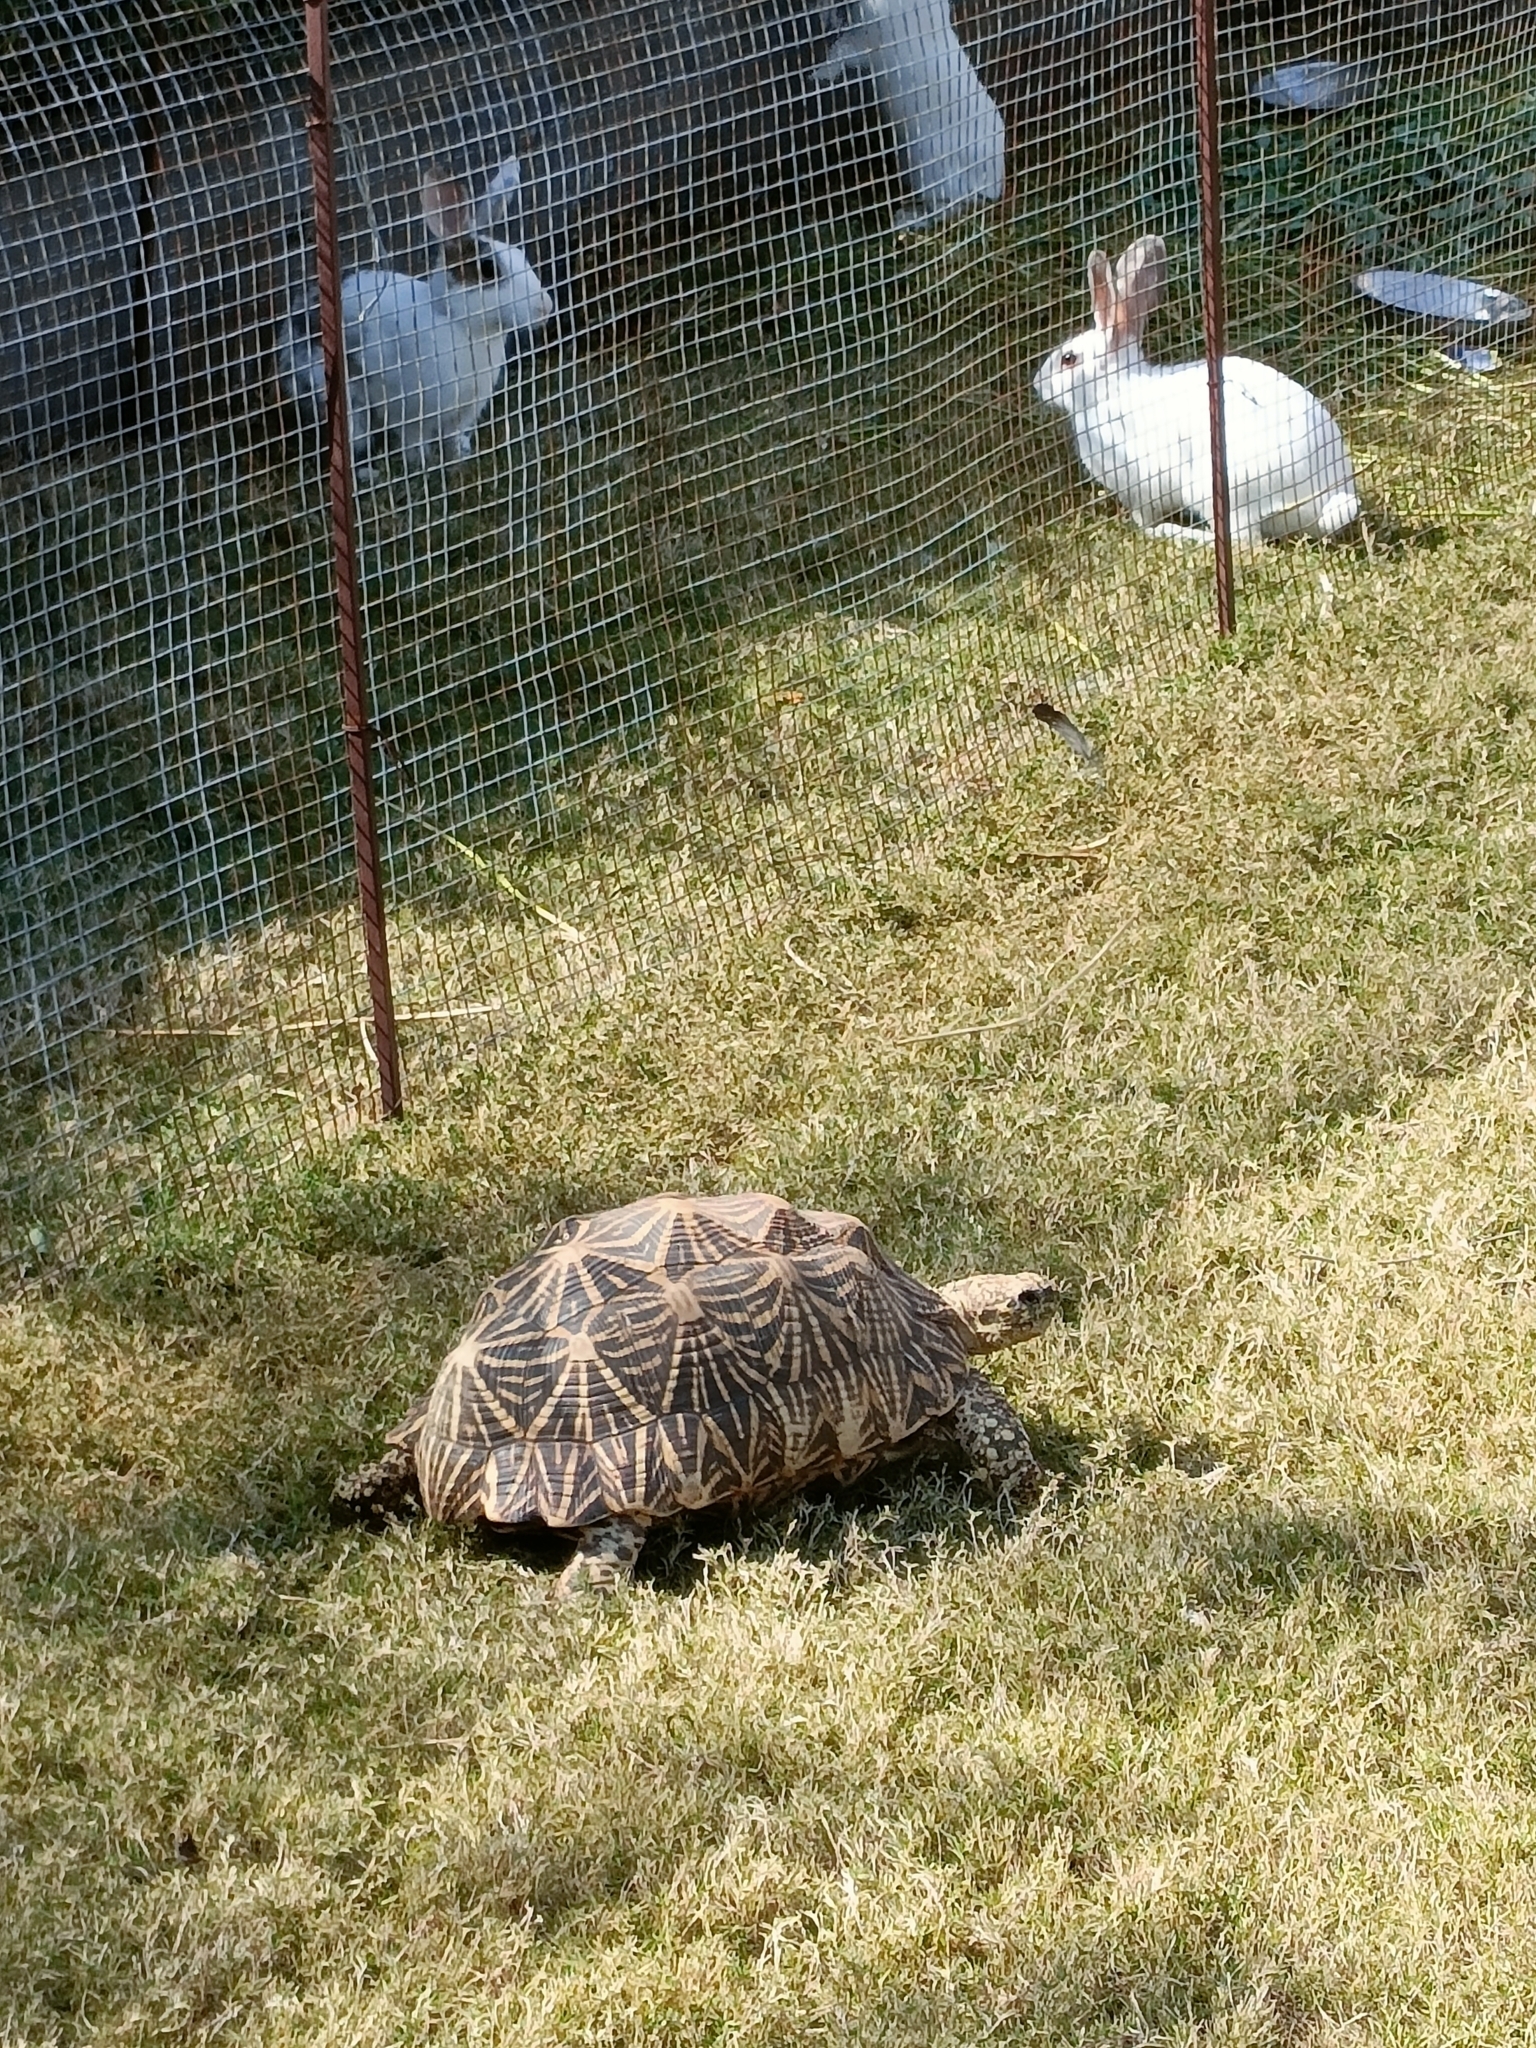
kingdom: Animalia
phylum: Chordata
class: Testudines
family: Testudinidae
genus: Geochelone
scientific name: Geochelone elegans
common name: Indian star tortoise
